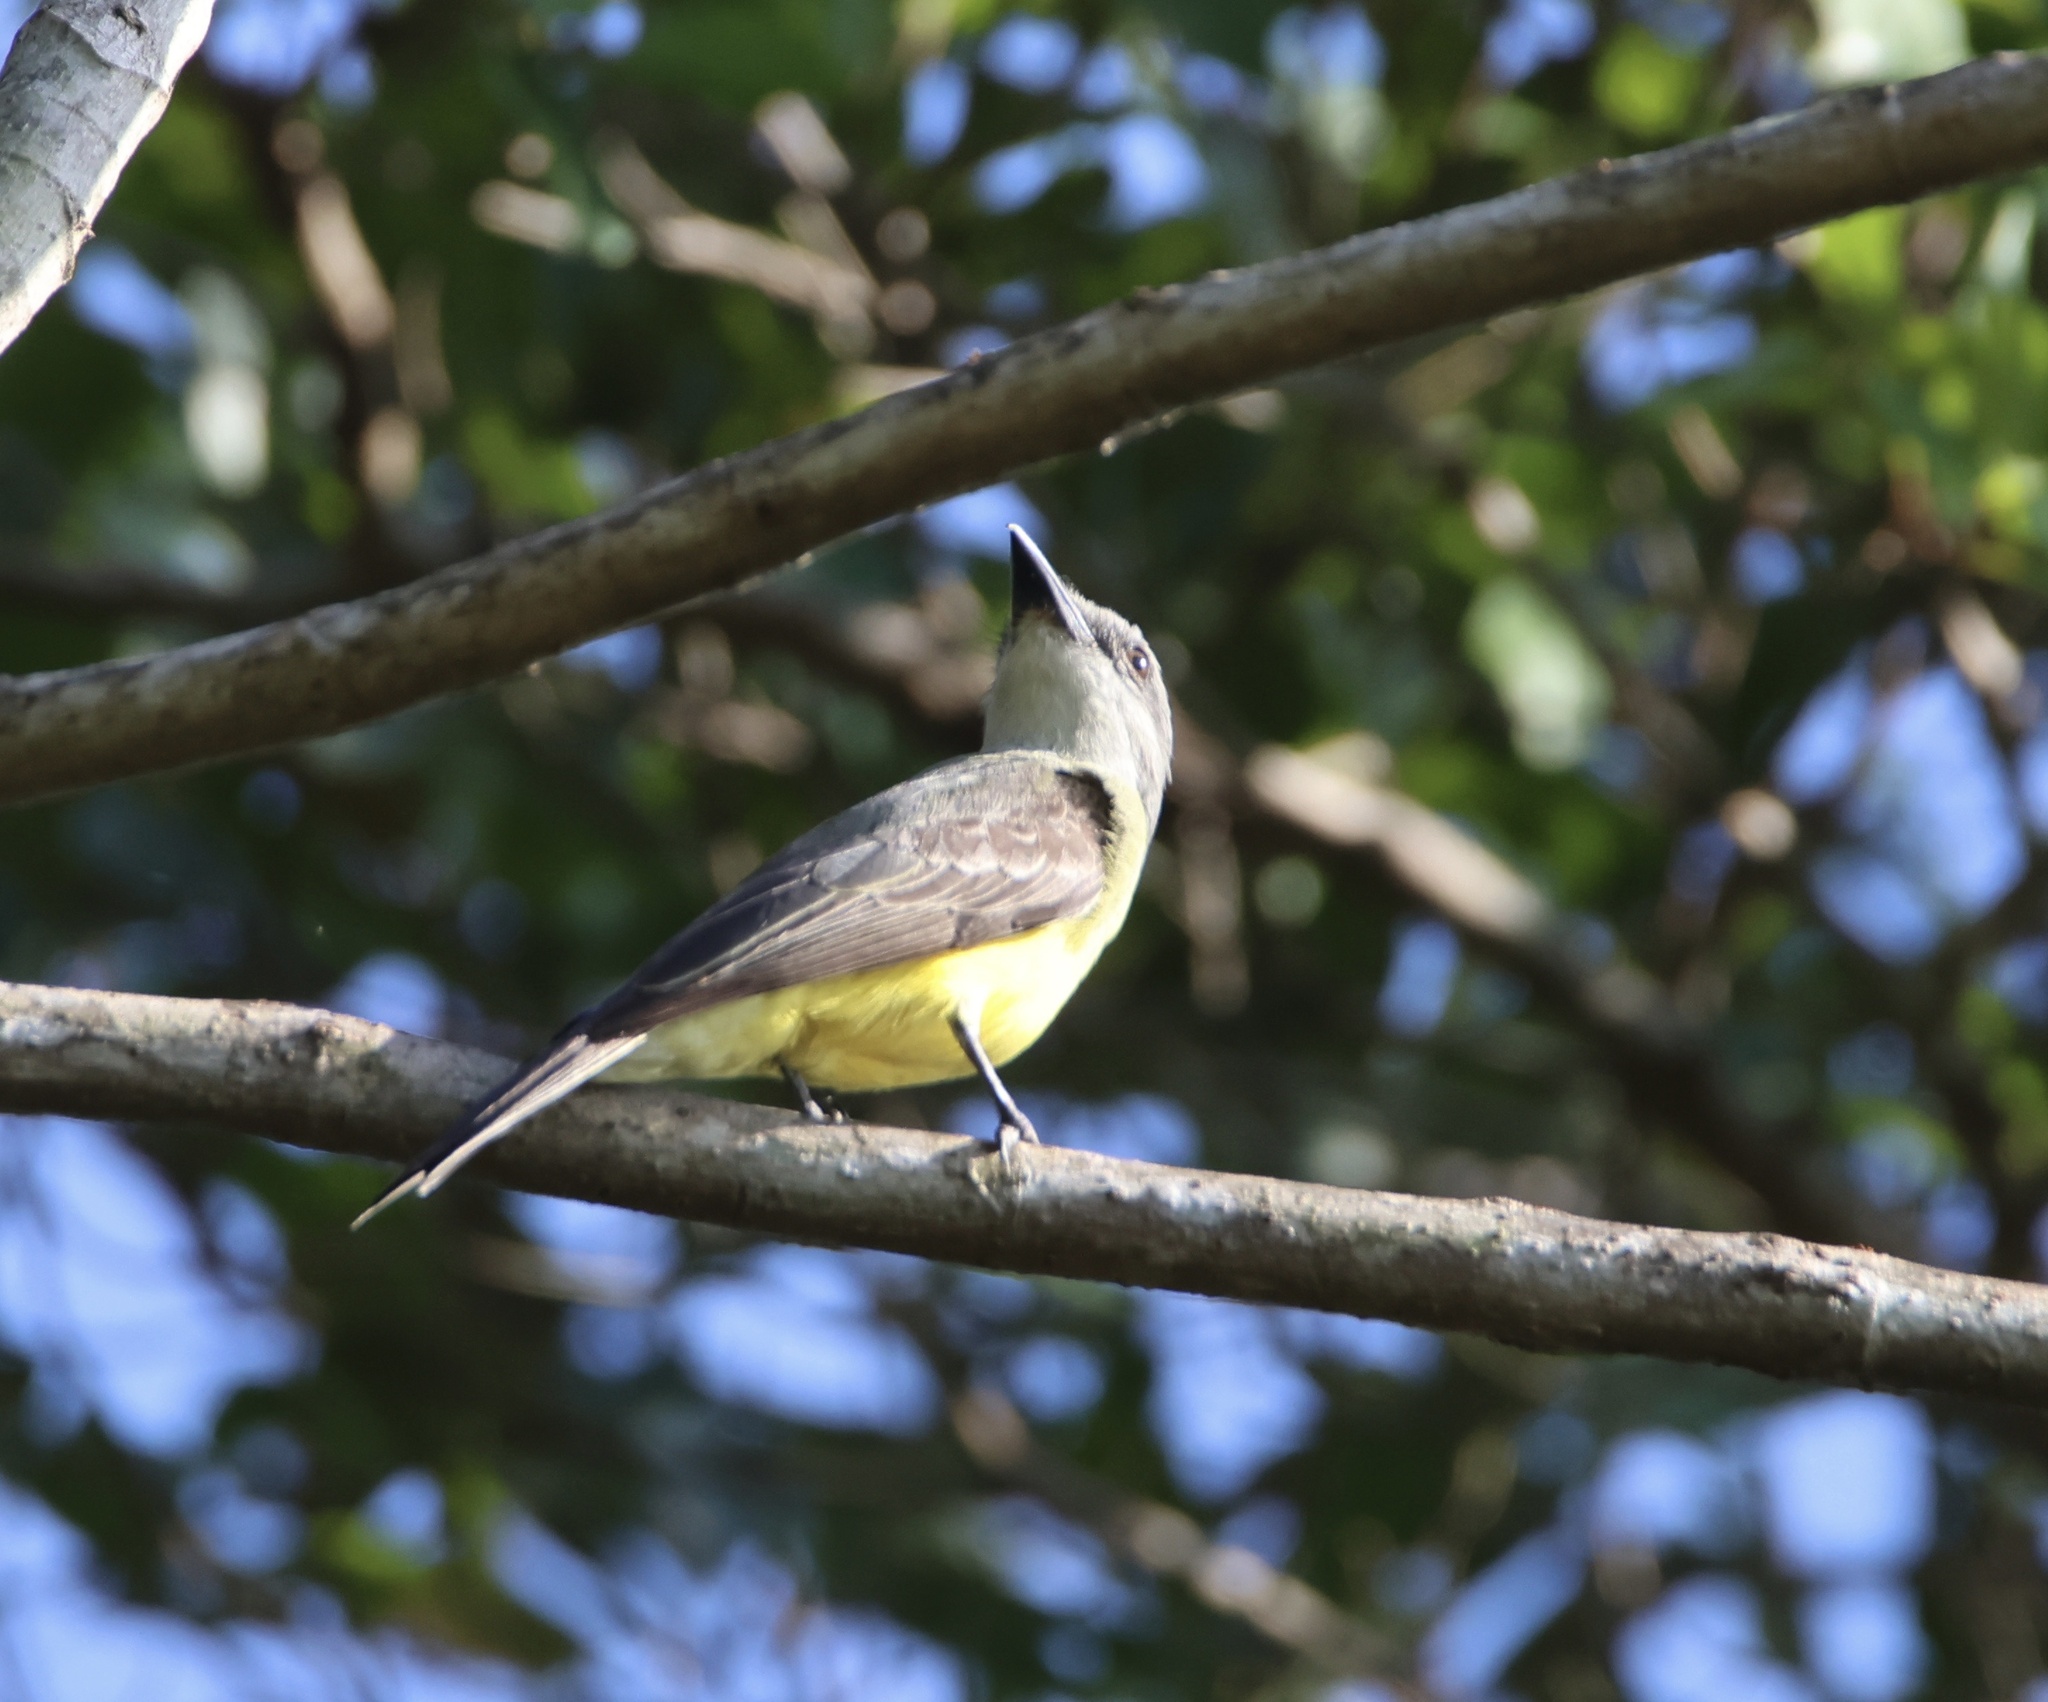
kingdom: Animalia
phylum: Chordata
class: Aves
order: Passeriformes
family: Tyrannidae
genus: Tyrannus
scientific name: Tyrannus melancholicus
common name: Tropical kingbird
